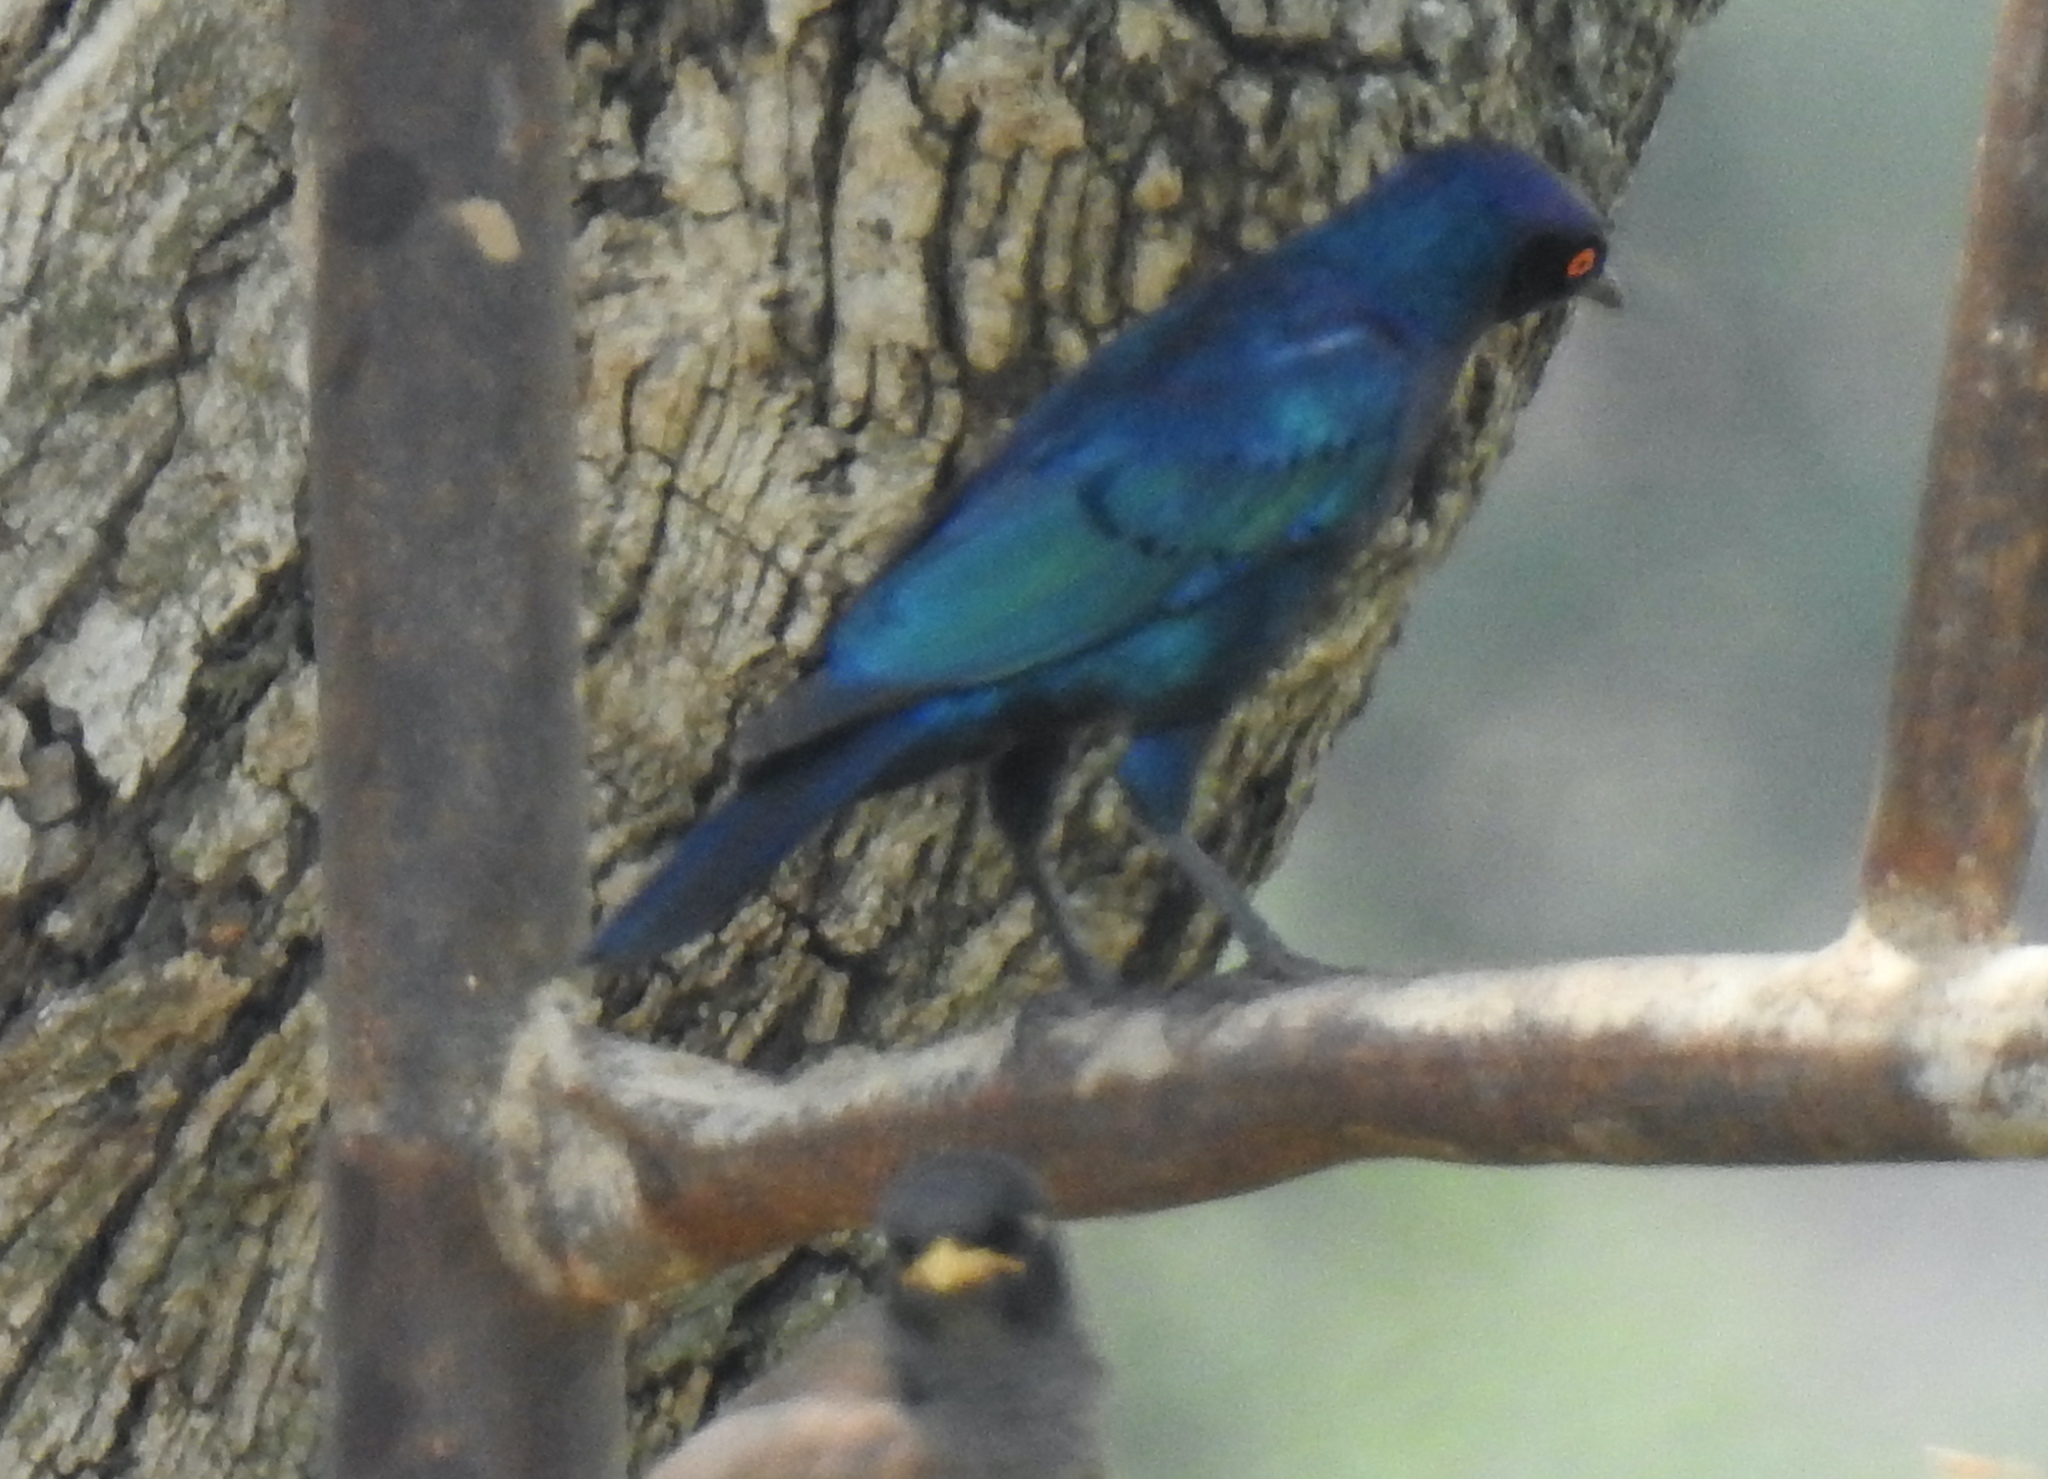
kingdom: Animalia
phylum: Chordata
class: Aves
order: Passeriformes
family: Sturnidae
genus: Lamprotornis
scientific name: Lamprotornis nitens
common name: Cape starling
